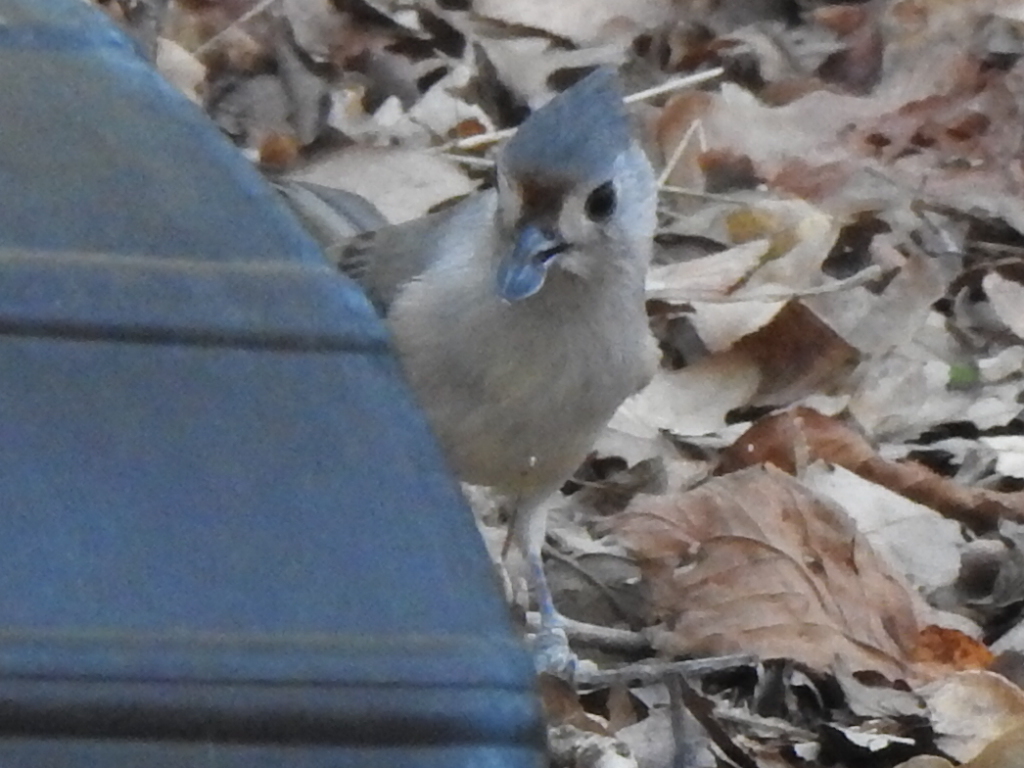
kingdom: Animalia
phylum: Chordata
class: Aves
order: Passeriformes
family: Paridae
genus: Baeolophus
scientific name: Baeolophus
